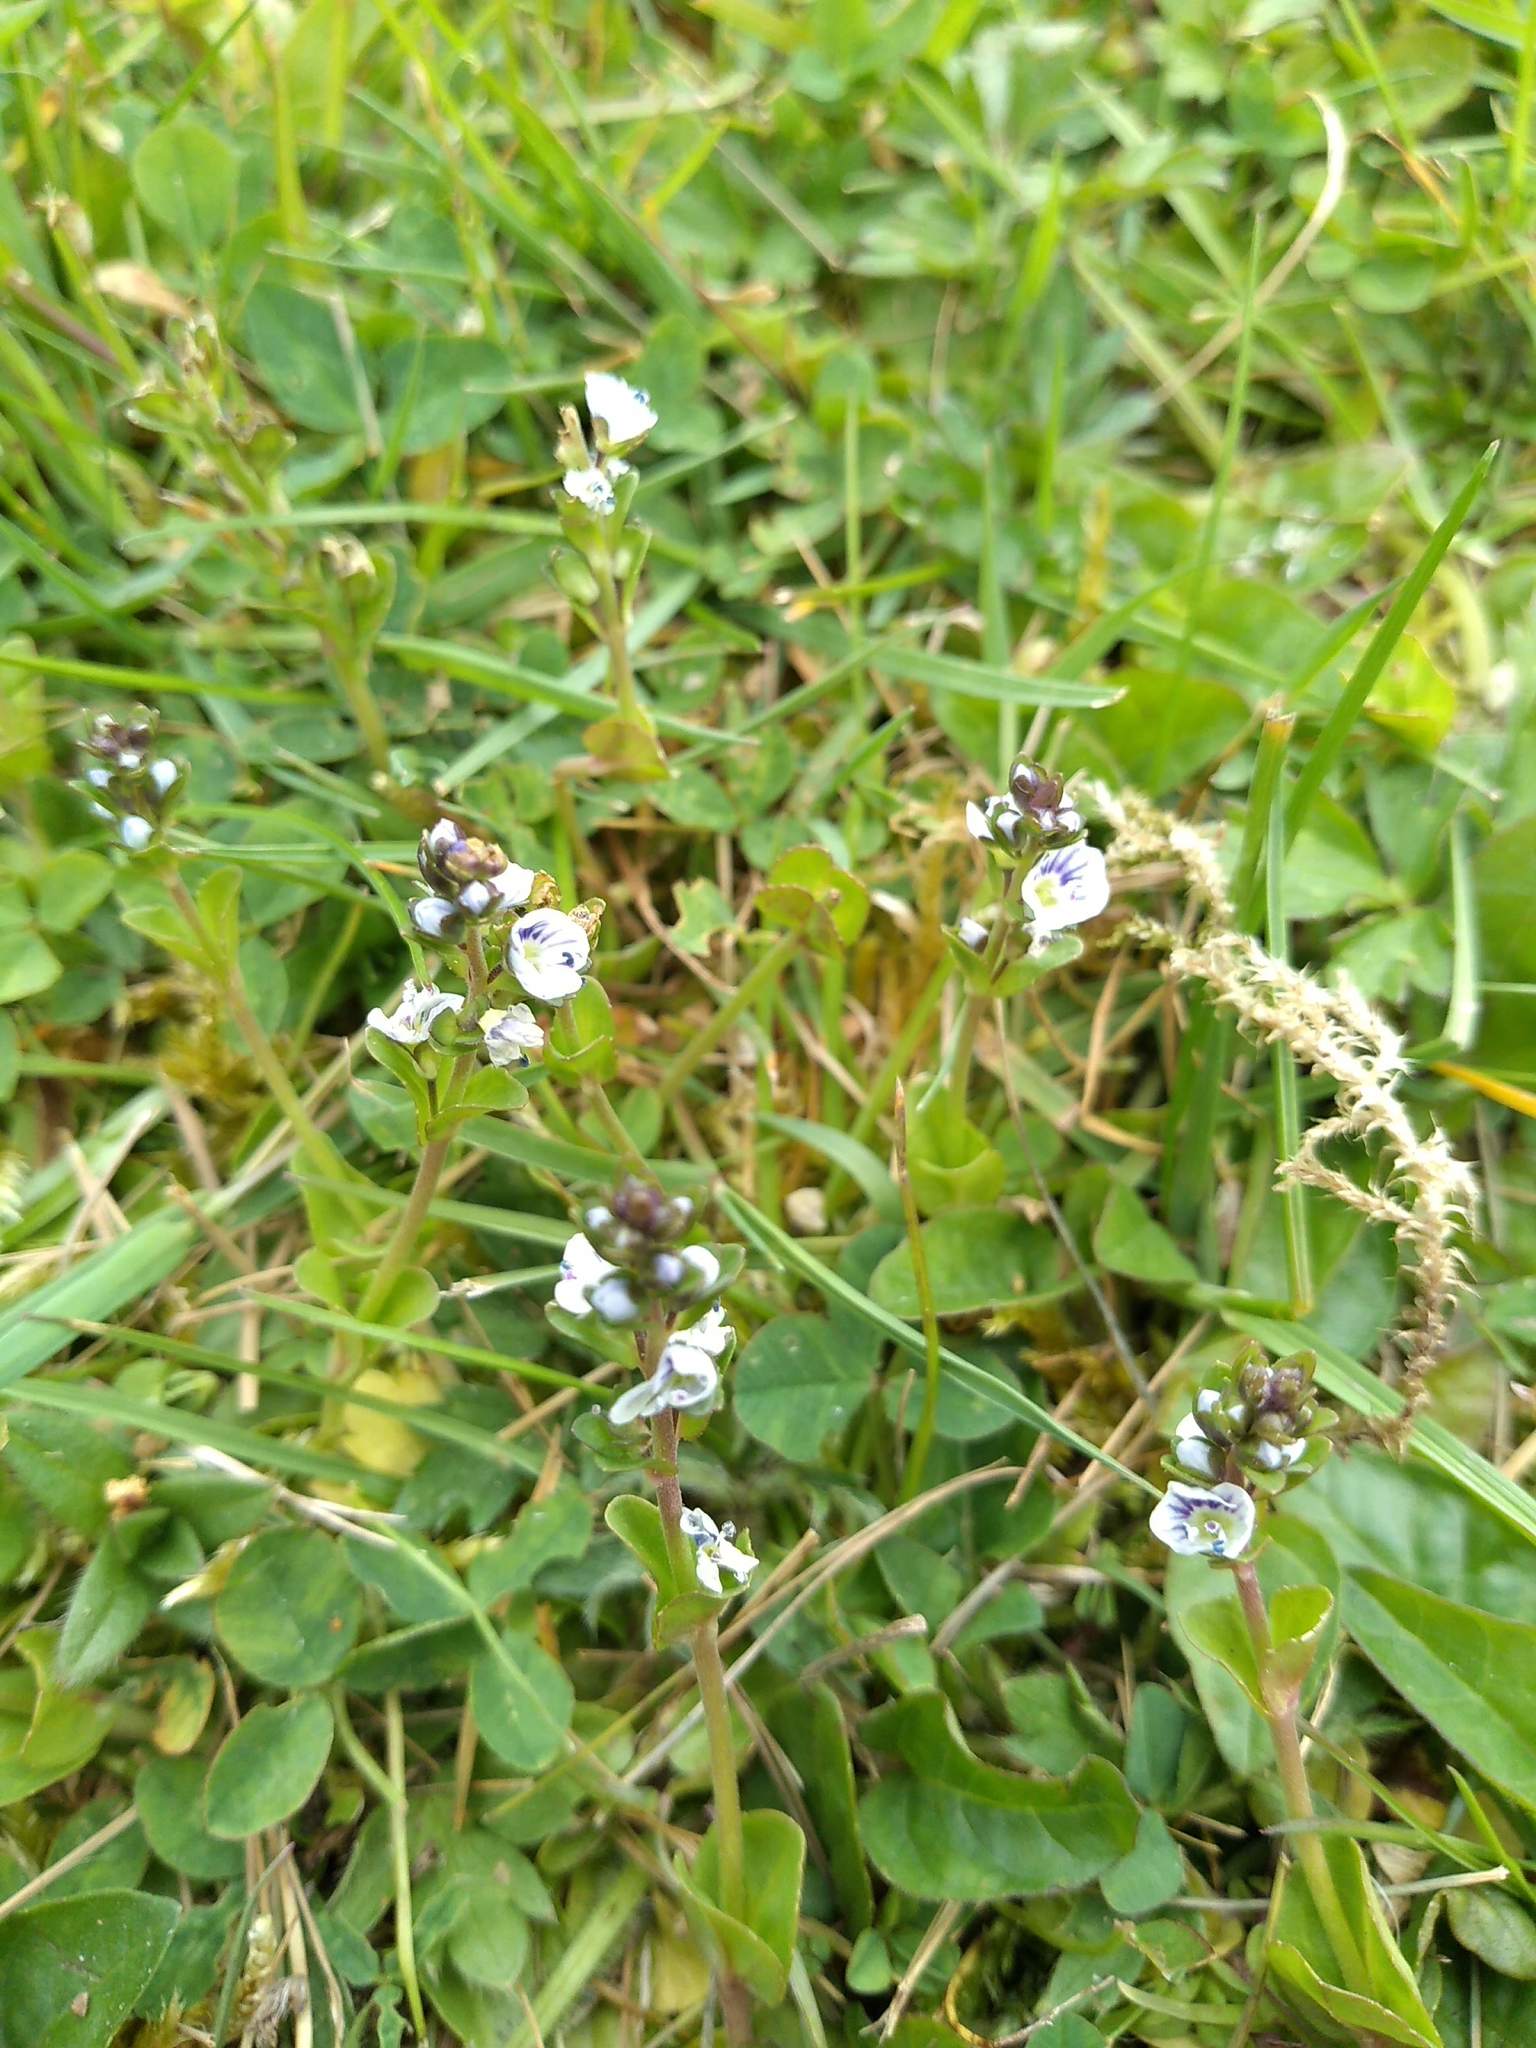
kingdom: Plantae
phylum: Tracheophyta
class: Magnoliopsida
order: Lamiales
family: Plantaginaceae
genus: Veronica
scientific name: Veronica serpyllifolia
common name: Thyme-leaved speedwell
